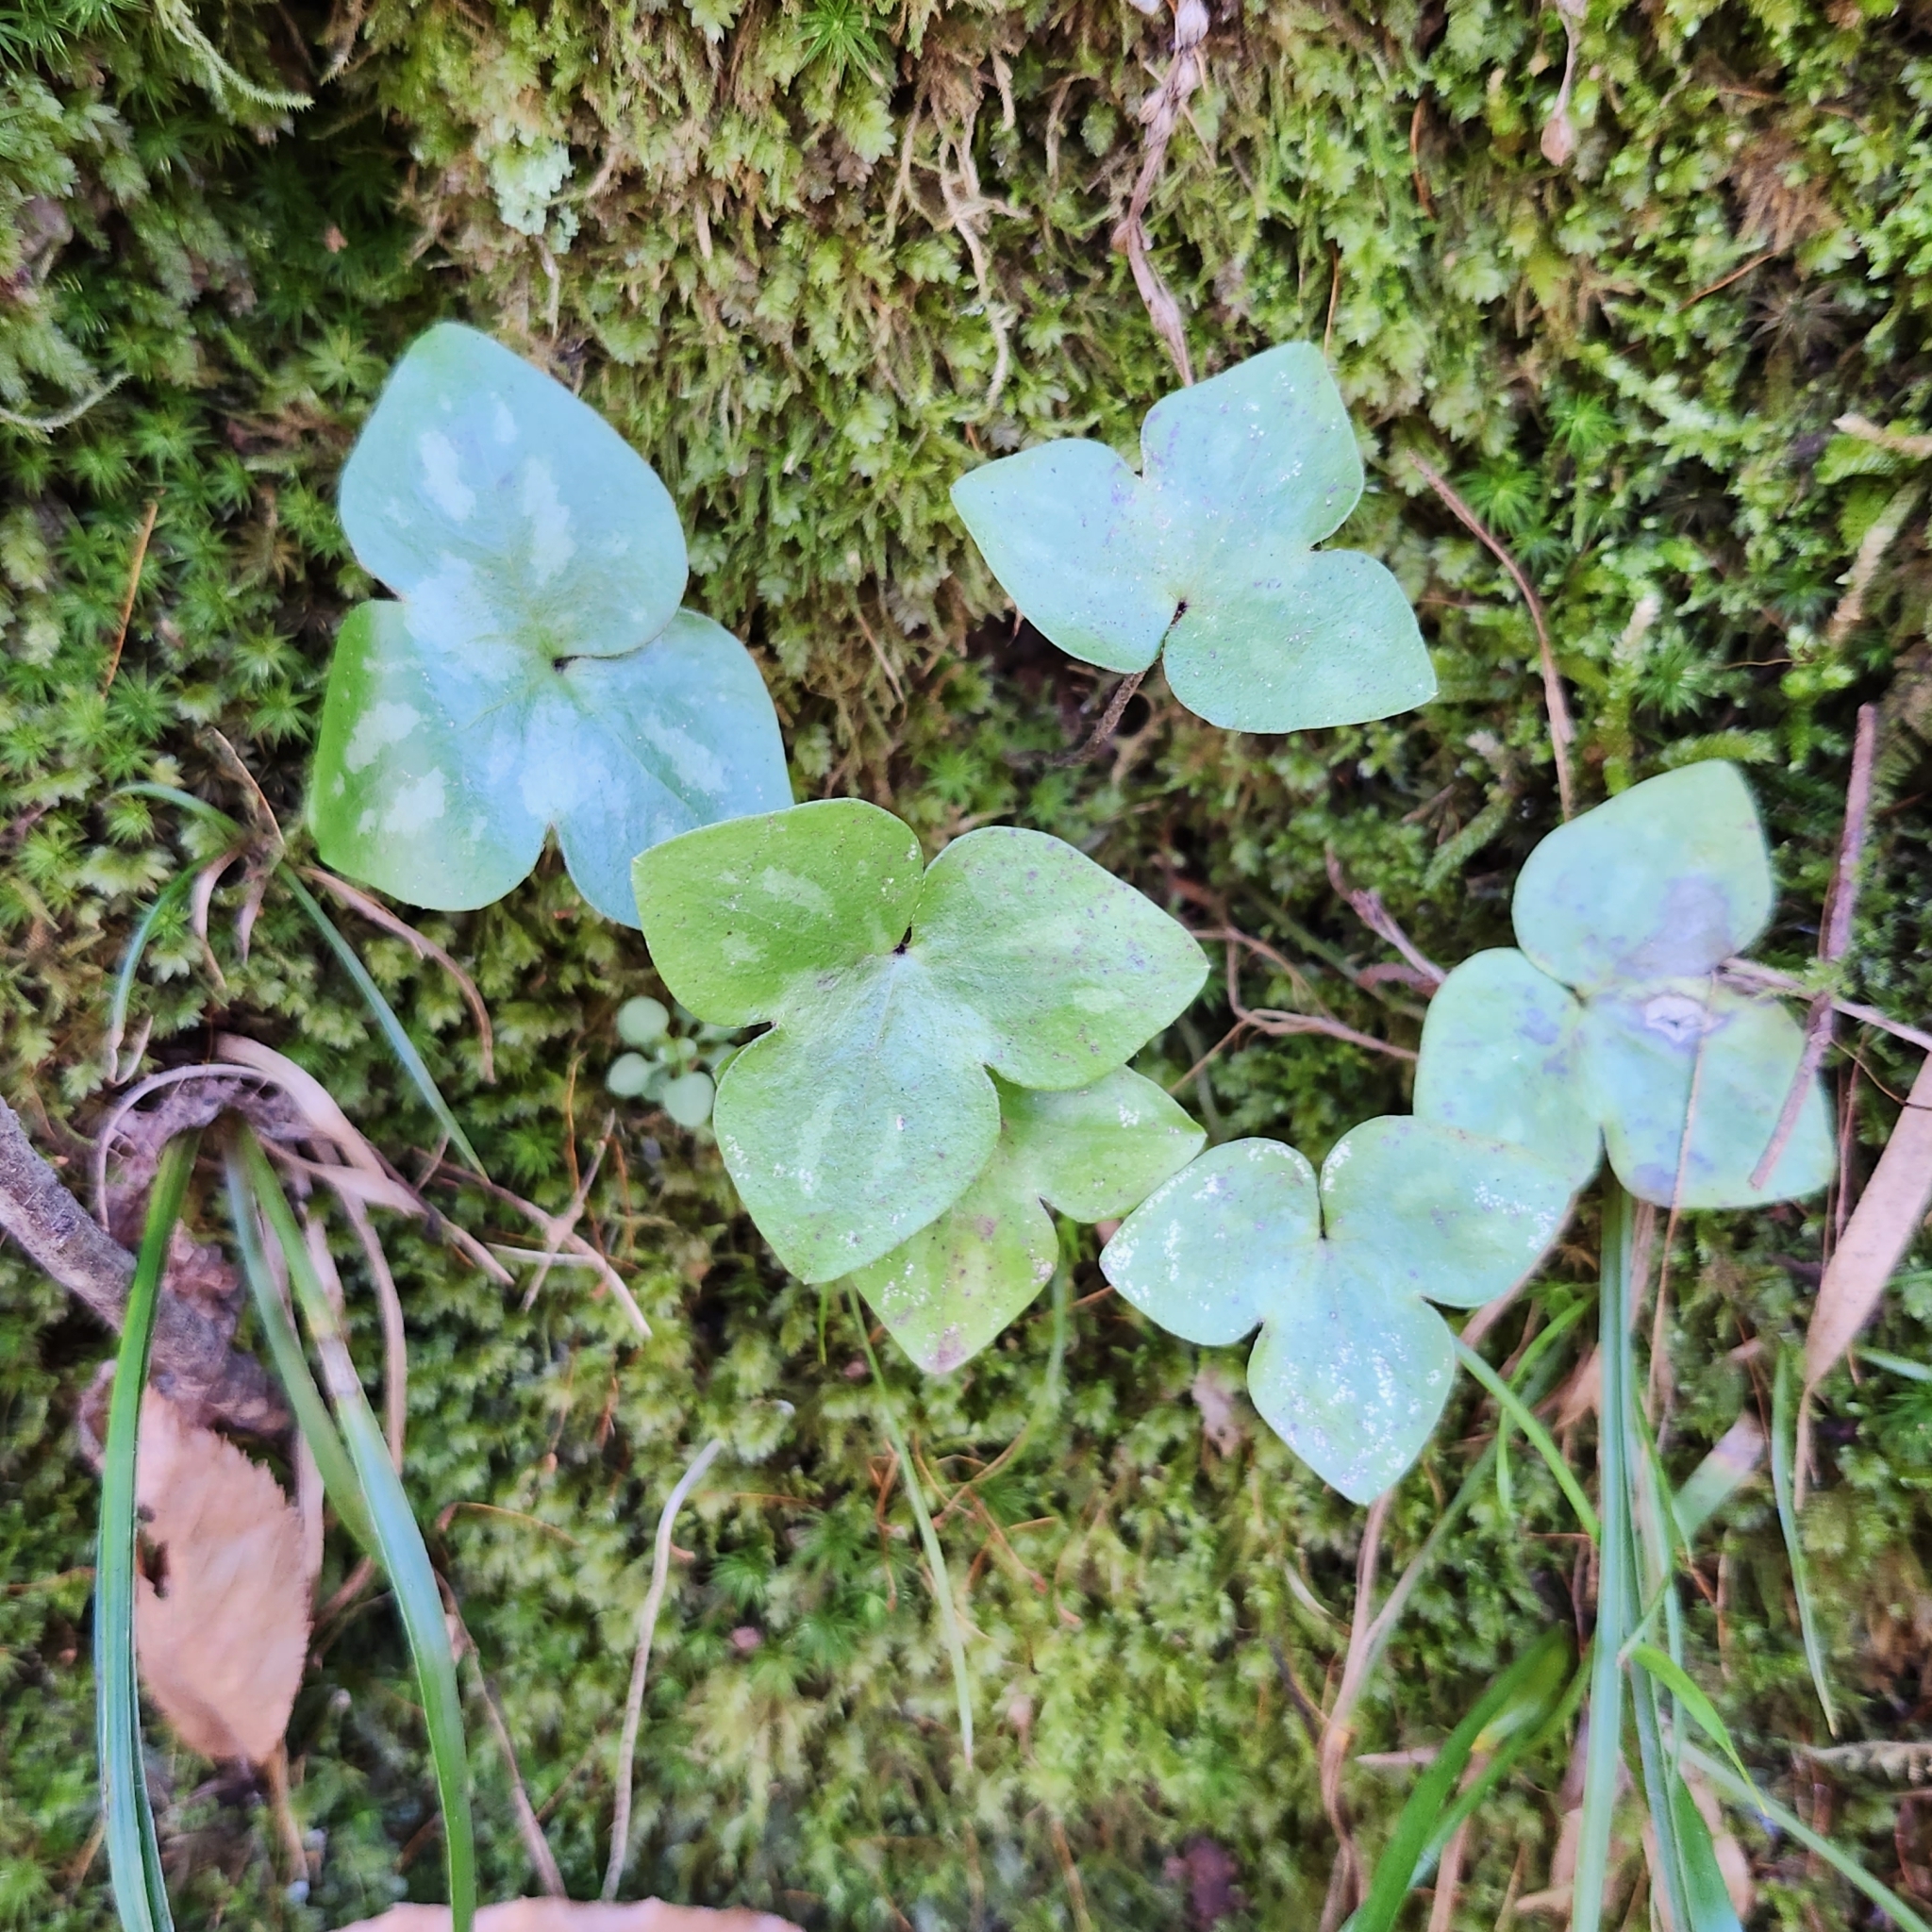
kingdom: Plantae
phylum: Tracheophyta
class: Magnoliopsida
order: Ranunculales
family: Ranunculaceae
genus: Hepatica
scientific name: Hepatica acutiloba
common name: Sharp-lobed hepatica
